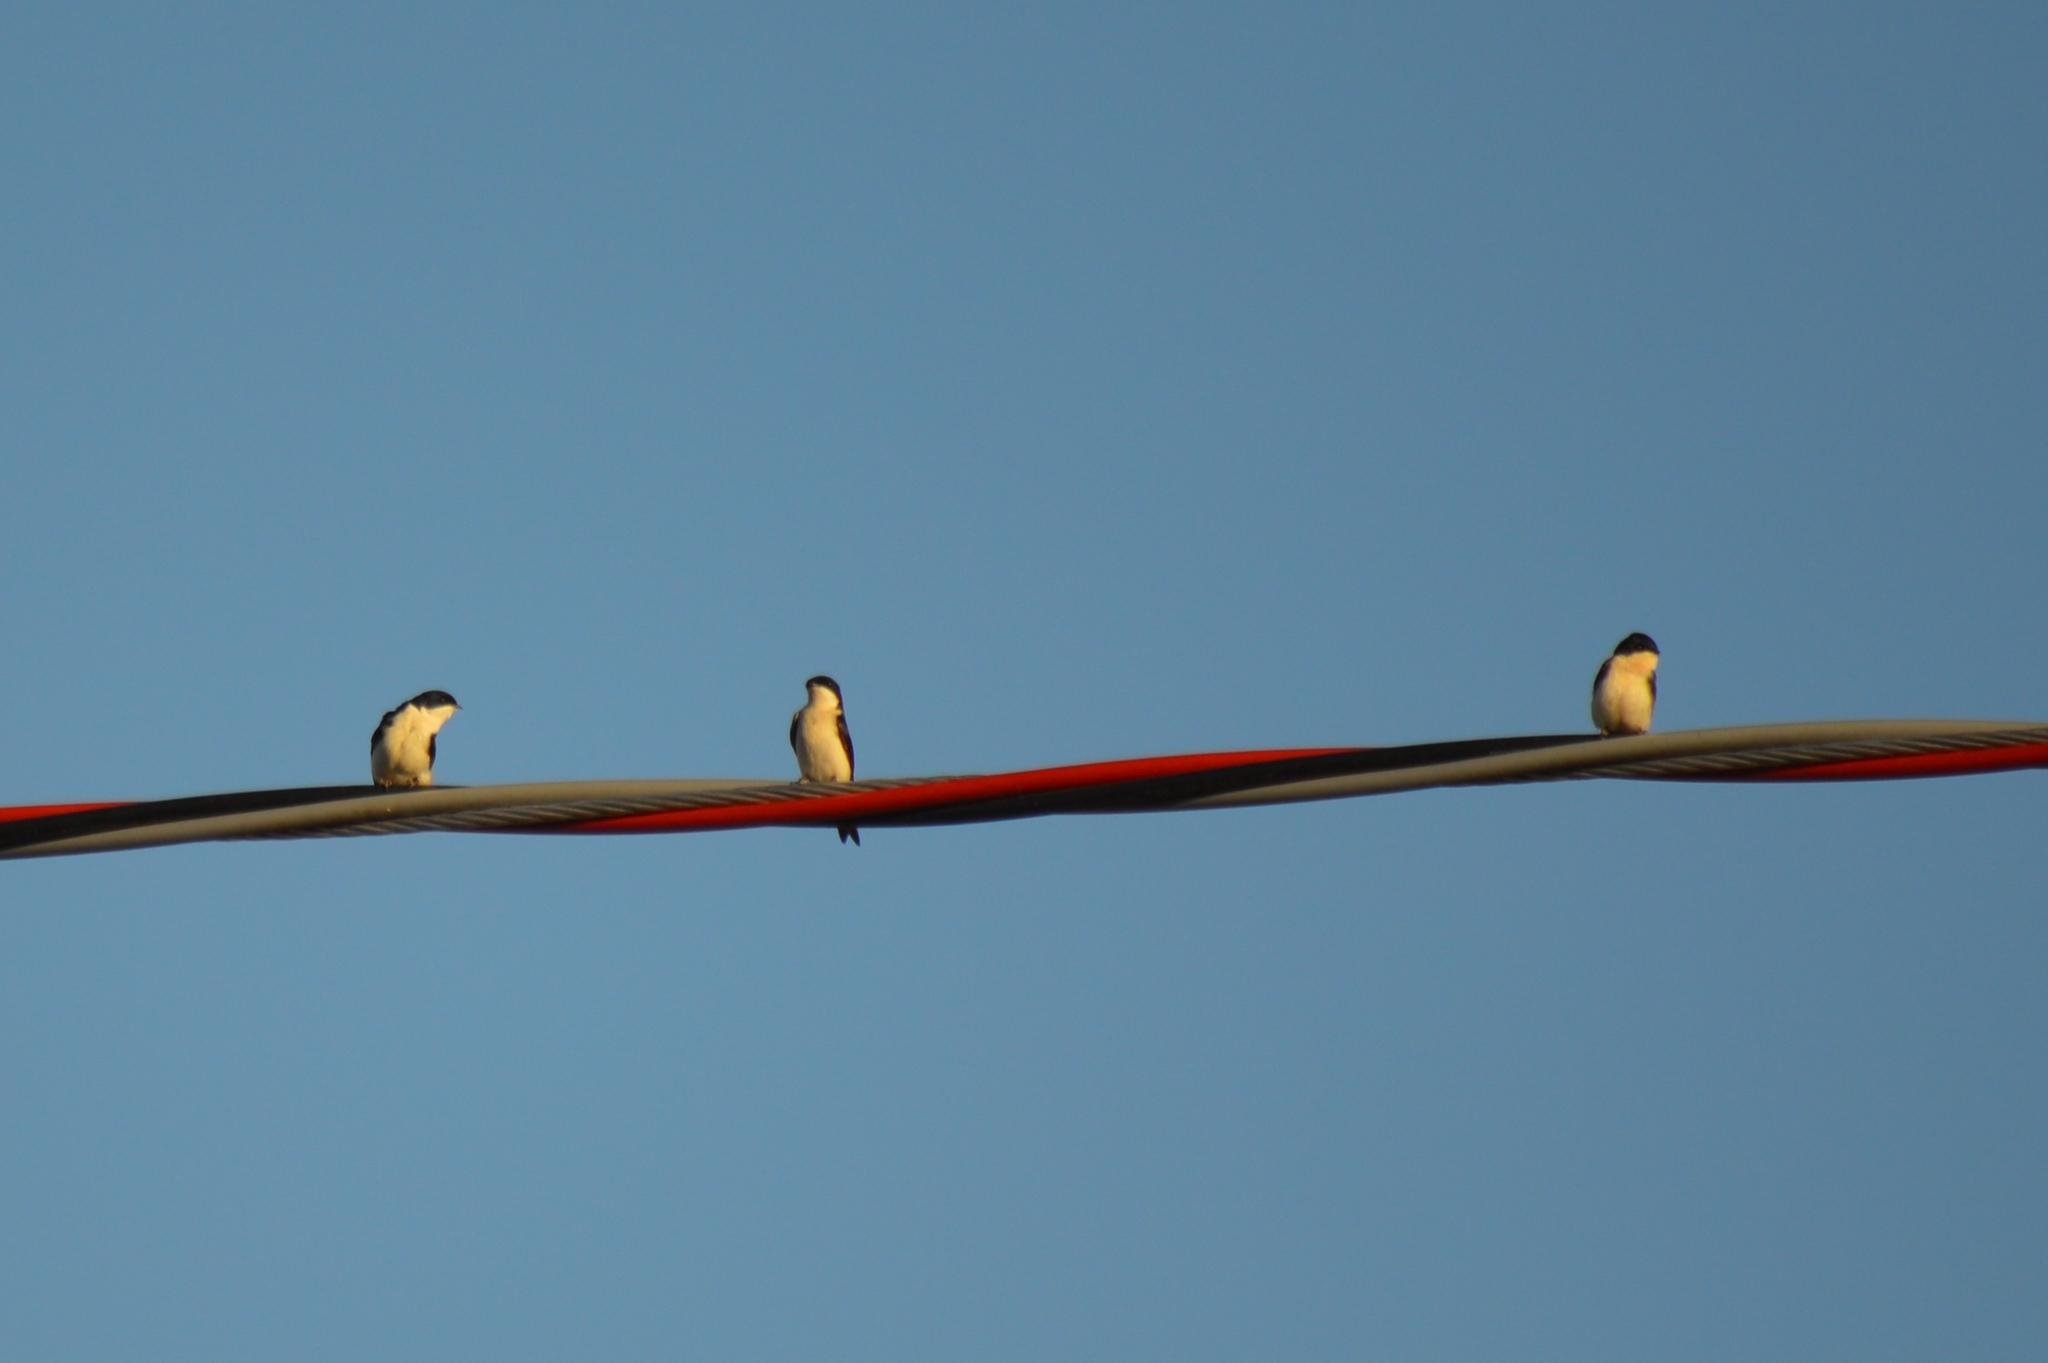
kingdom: Animalia
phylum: Chordata
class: Aves
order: Passeriformes
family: Hirundinidae
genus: Notiochelidon
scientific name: Notiochelidon cyanoleuca
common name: Blue-and-white swallow
